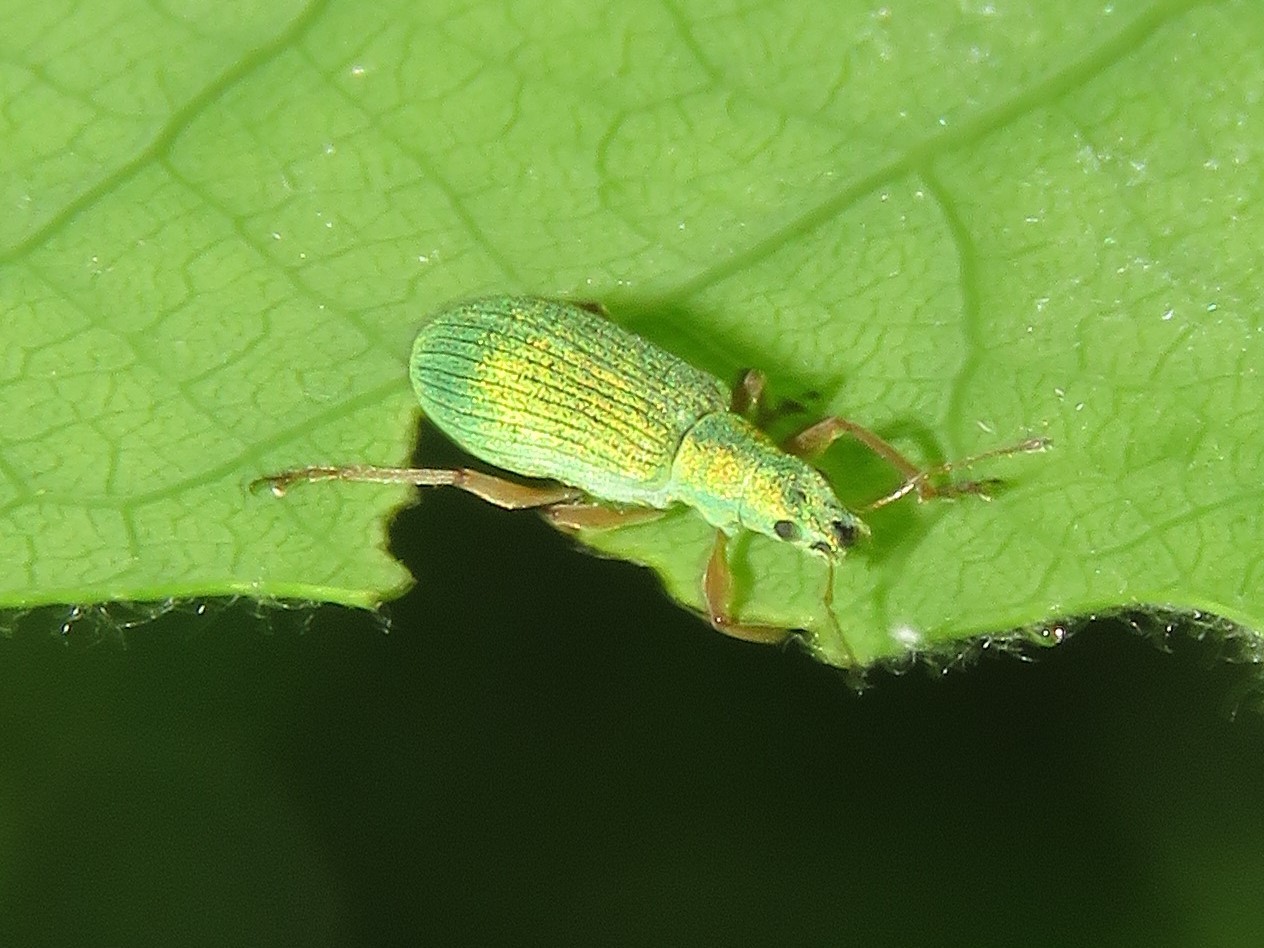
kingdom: Animalia
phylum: Arthropoda
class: Insecta
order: Coleoptera
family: Curculionidae
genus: Polydrusus
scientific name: Polydrusus impressifrons
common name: Weevil
